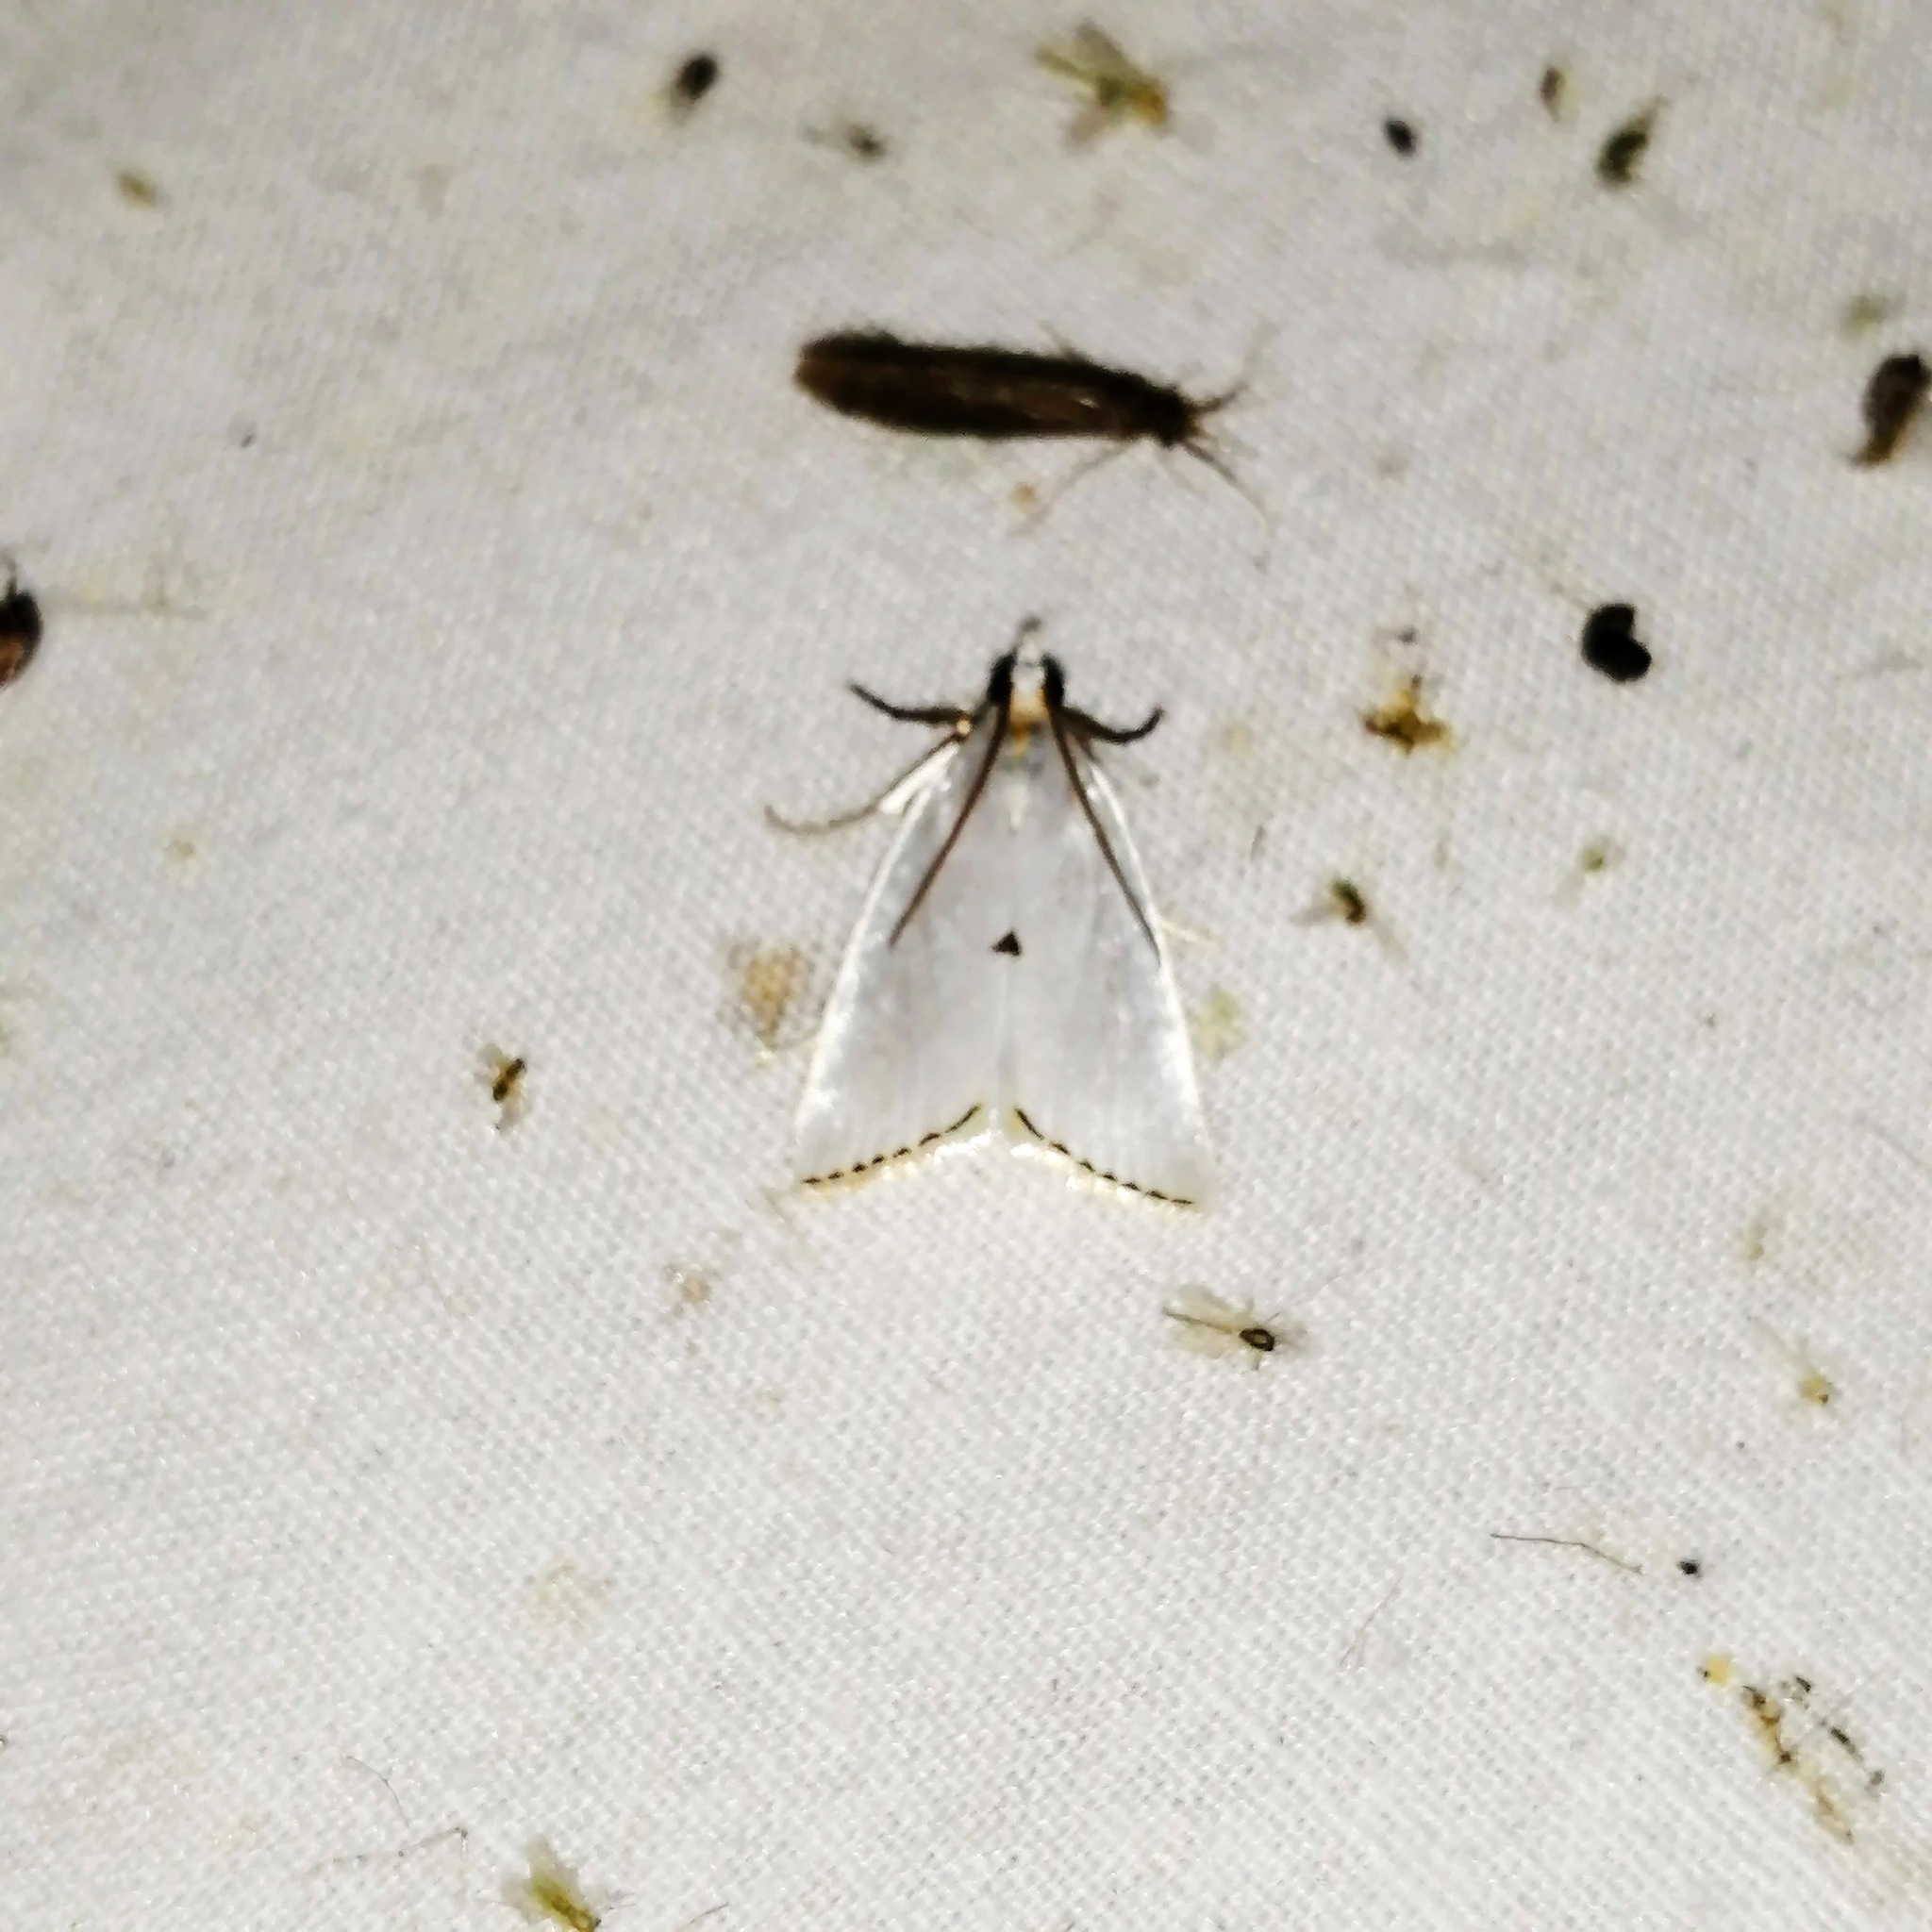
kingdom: Animalia
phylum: Arthropoda
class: Insecta
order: Lepidoptera
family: Crambidae
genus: Argyria
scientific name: Argyria nivalis
